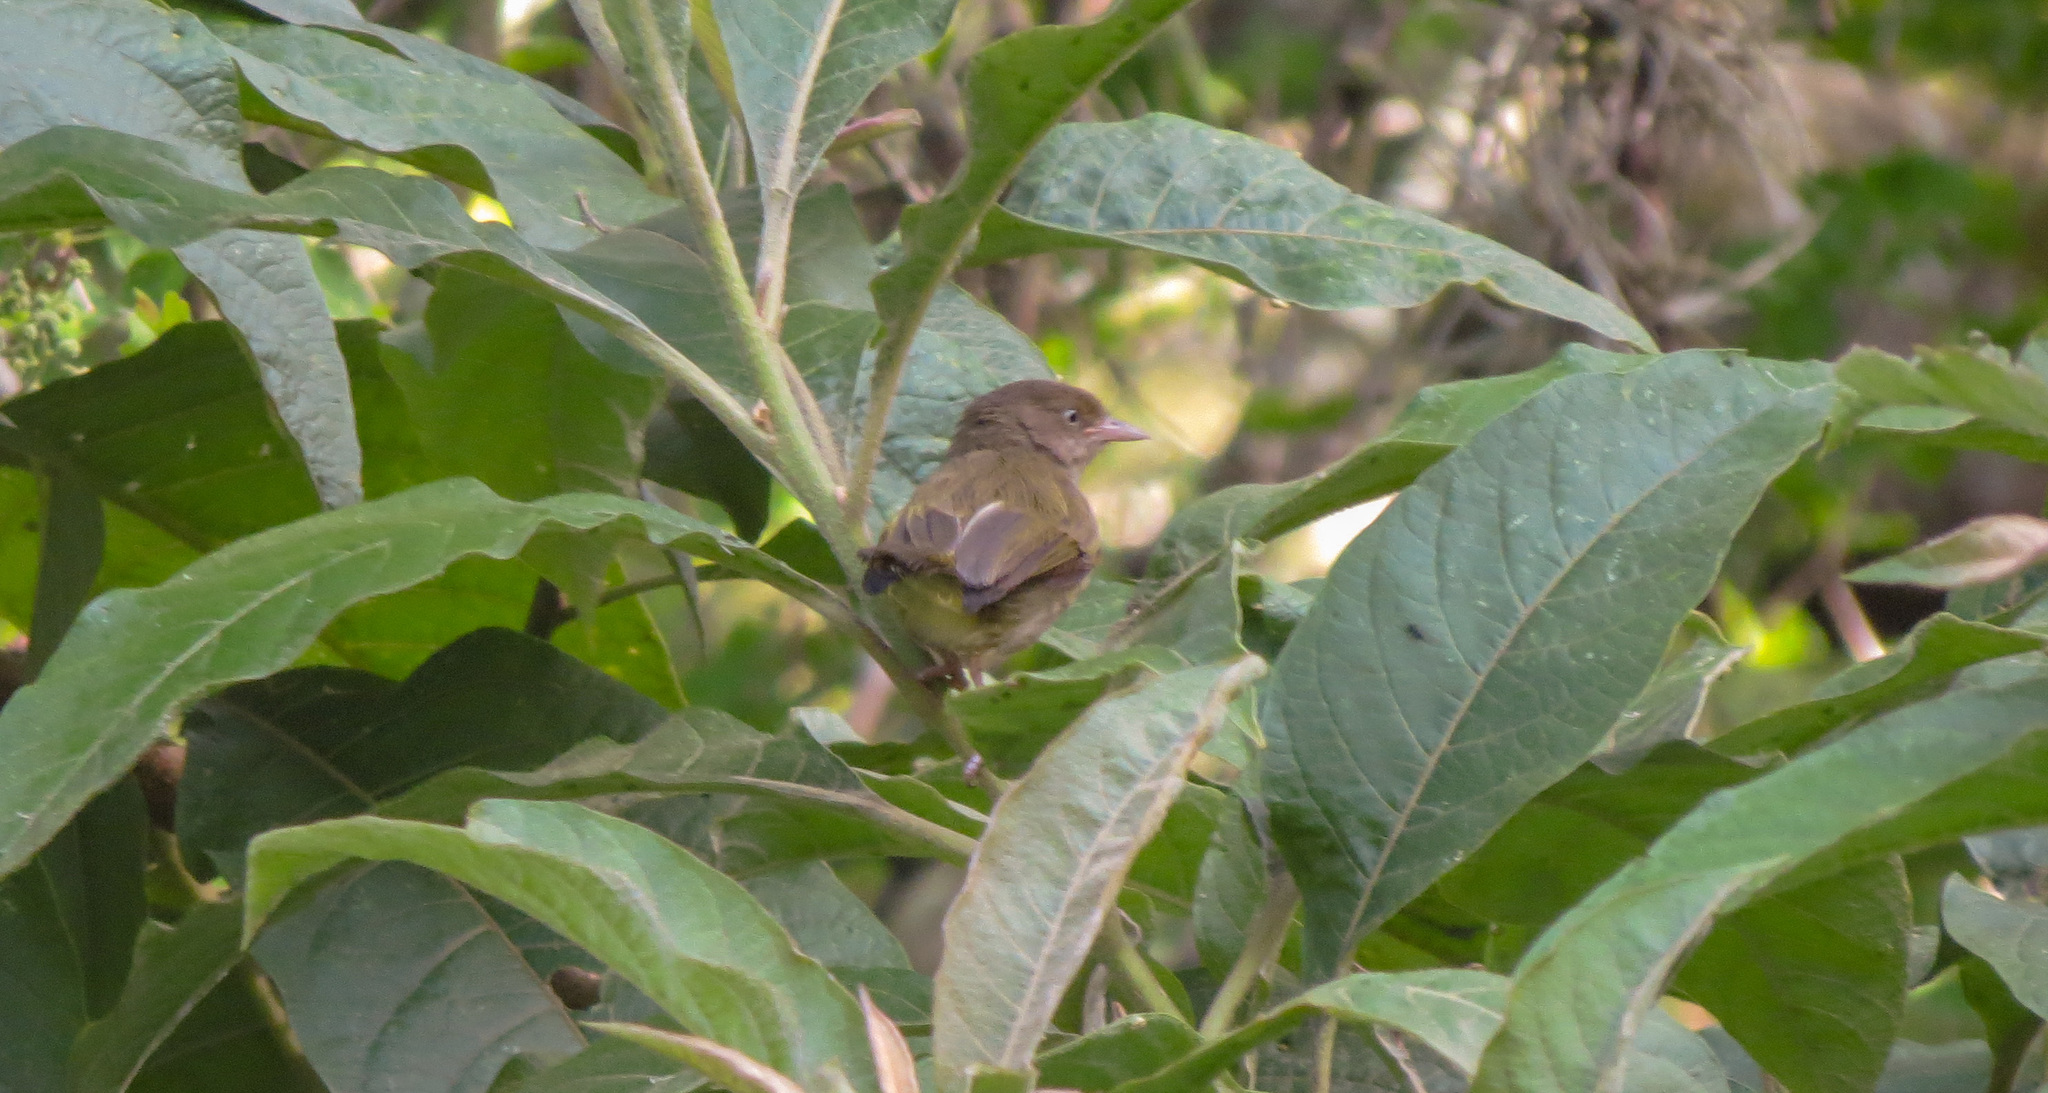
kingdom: Animalia
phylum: Chordata
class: Aves
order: Passeriformes
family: Vireonidae
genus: Hylophilus
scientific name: Hylophilus flavipes
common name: Scrub greenlet
